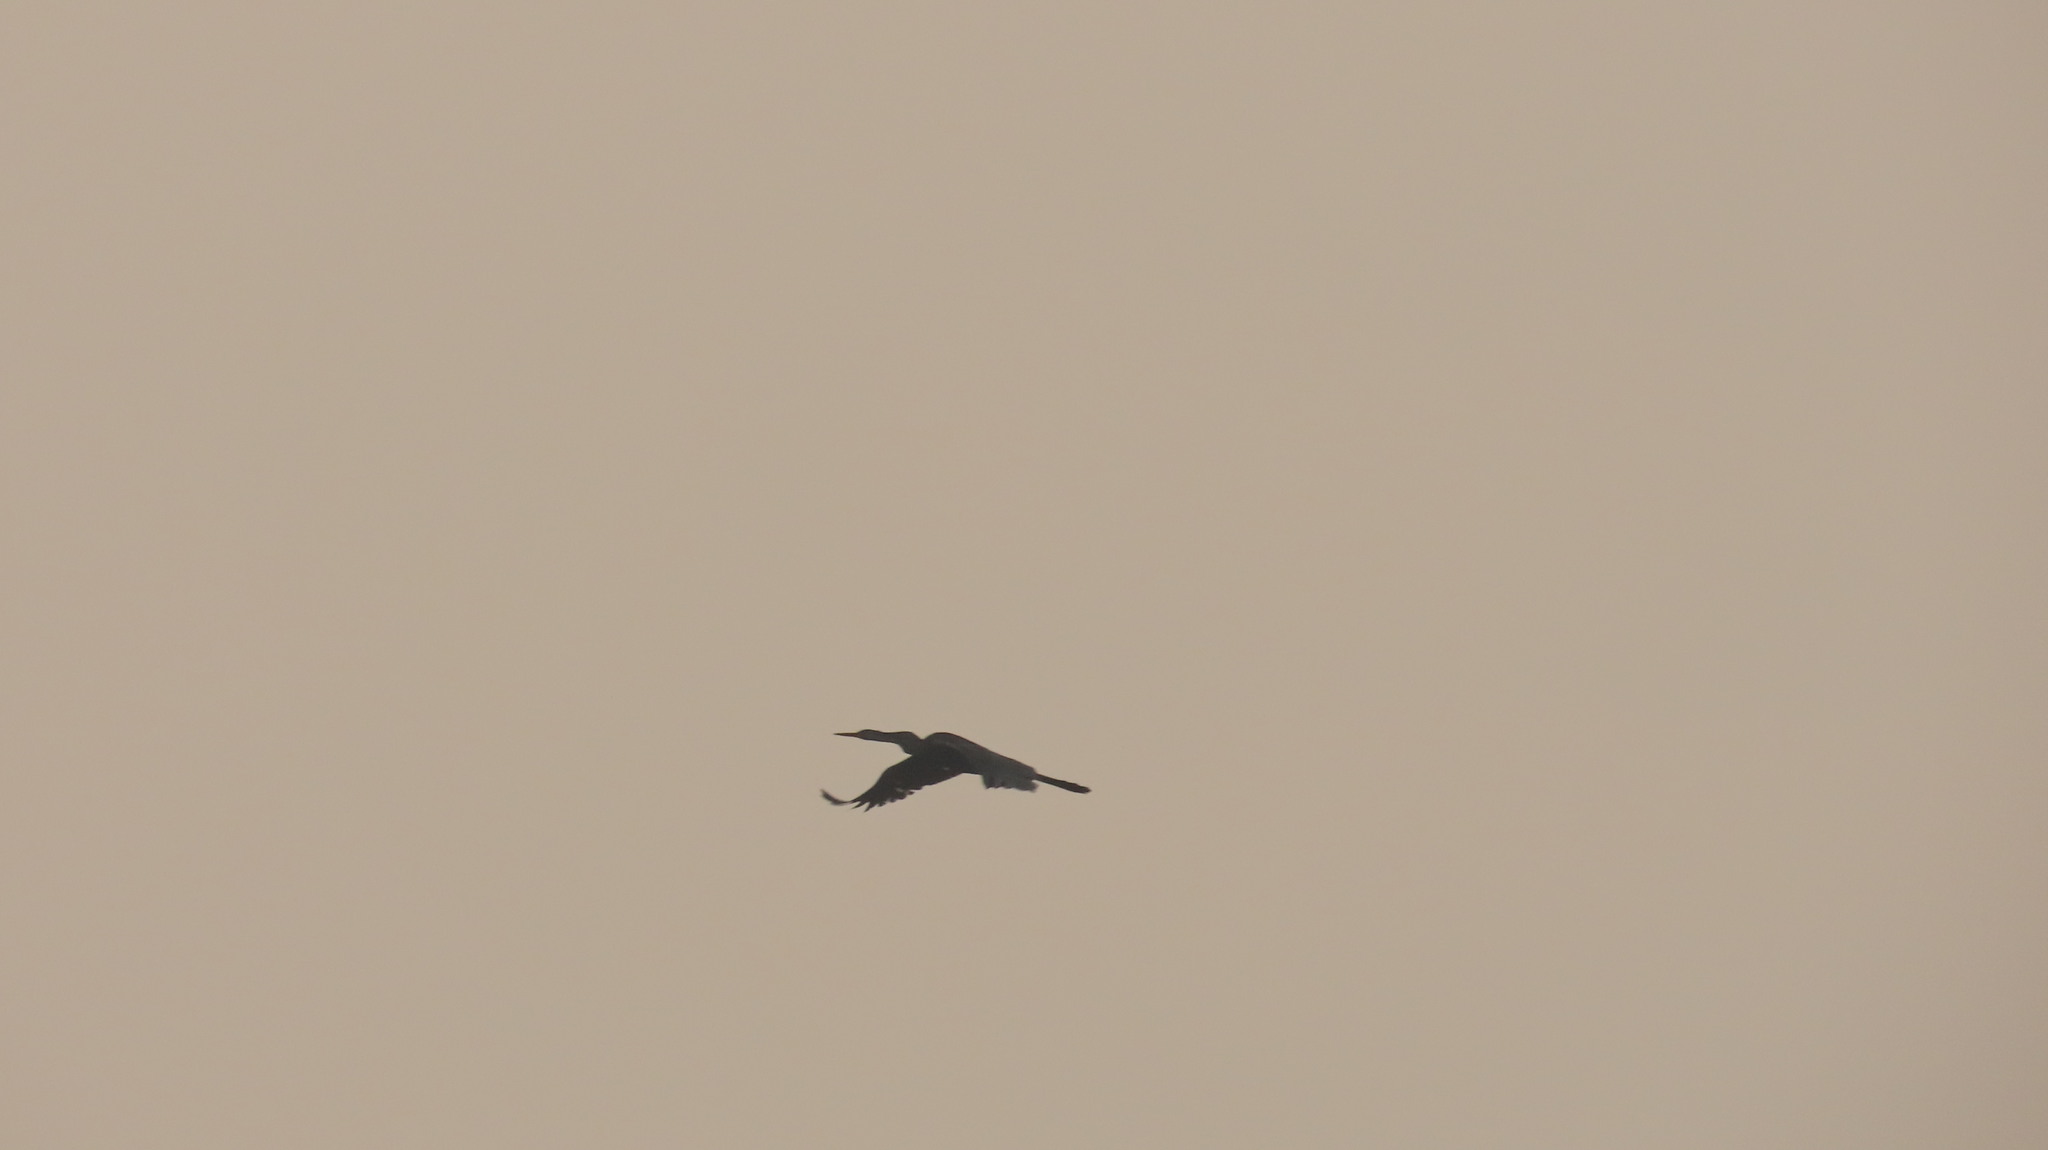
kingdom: Animalia
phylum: Chordata
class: Aves
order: Suliformes
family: Anhingidae
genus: Anhinga
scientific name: Anhinga melanogaster
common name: Oriental darter
